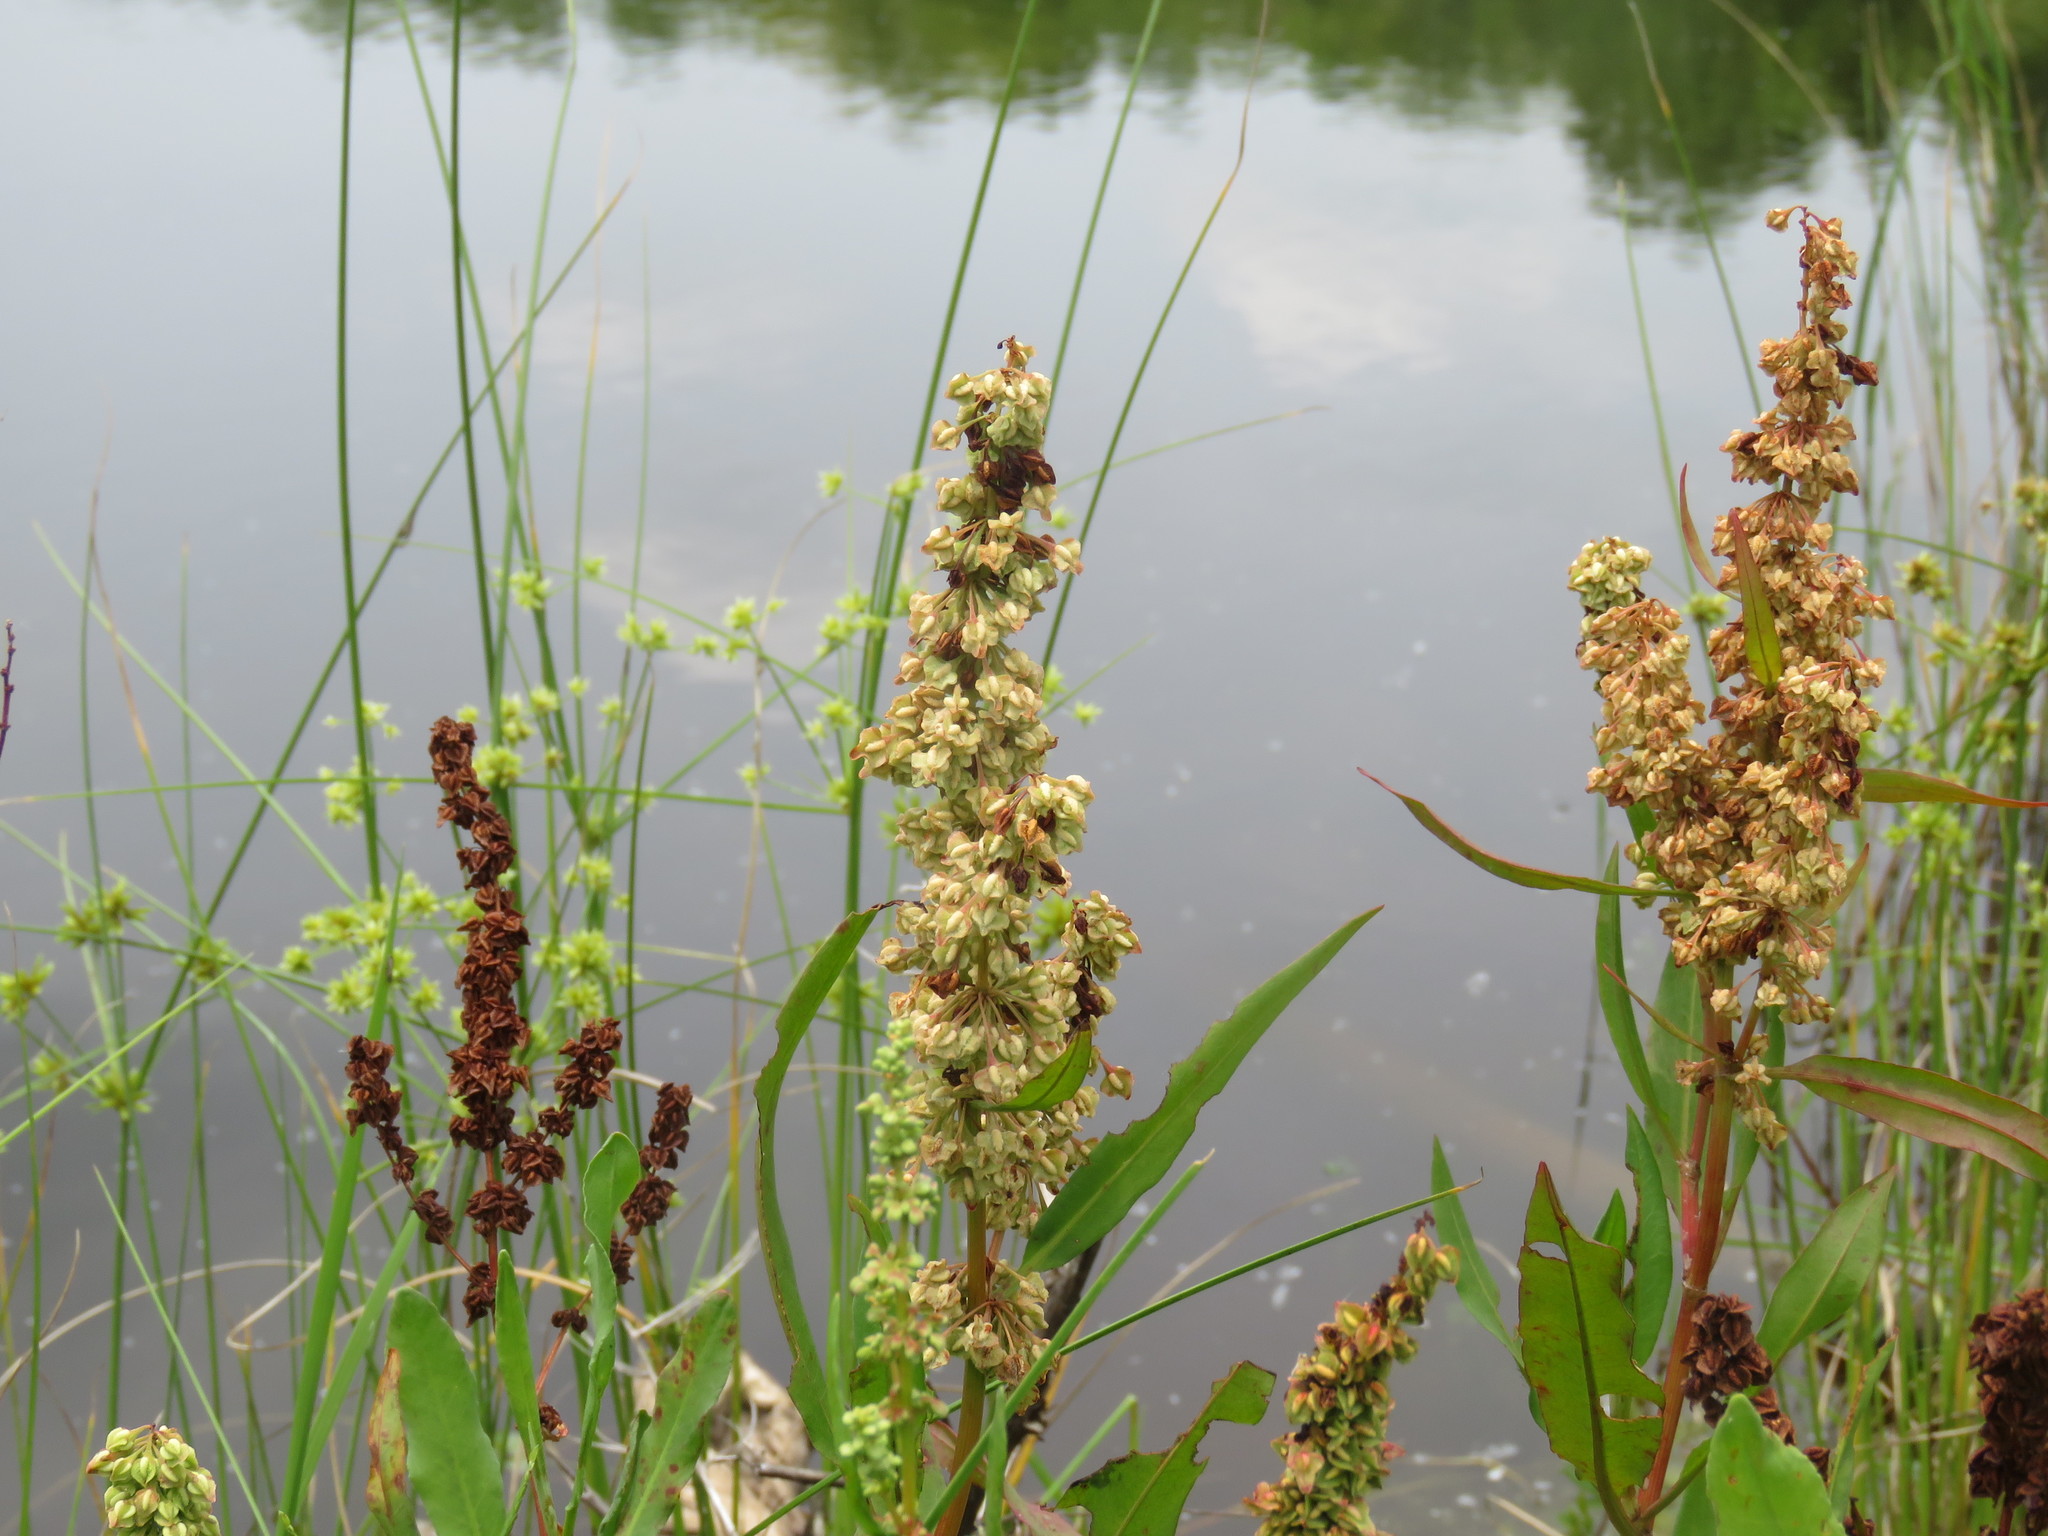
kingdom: Plantae
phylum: Tracheophyta
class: Magnoliopsida
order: Caryophyllales
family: Polygonaceae
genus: Rumex
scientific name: Rumex verticillatus
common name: Swamp dock
